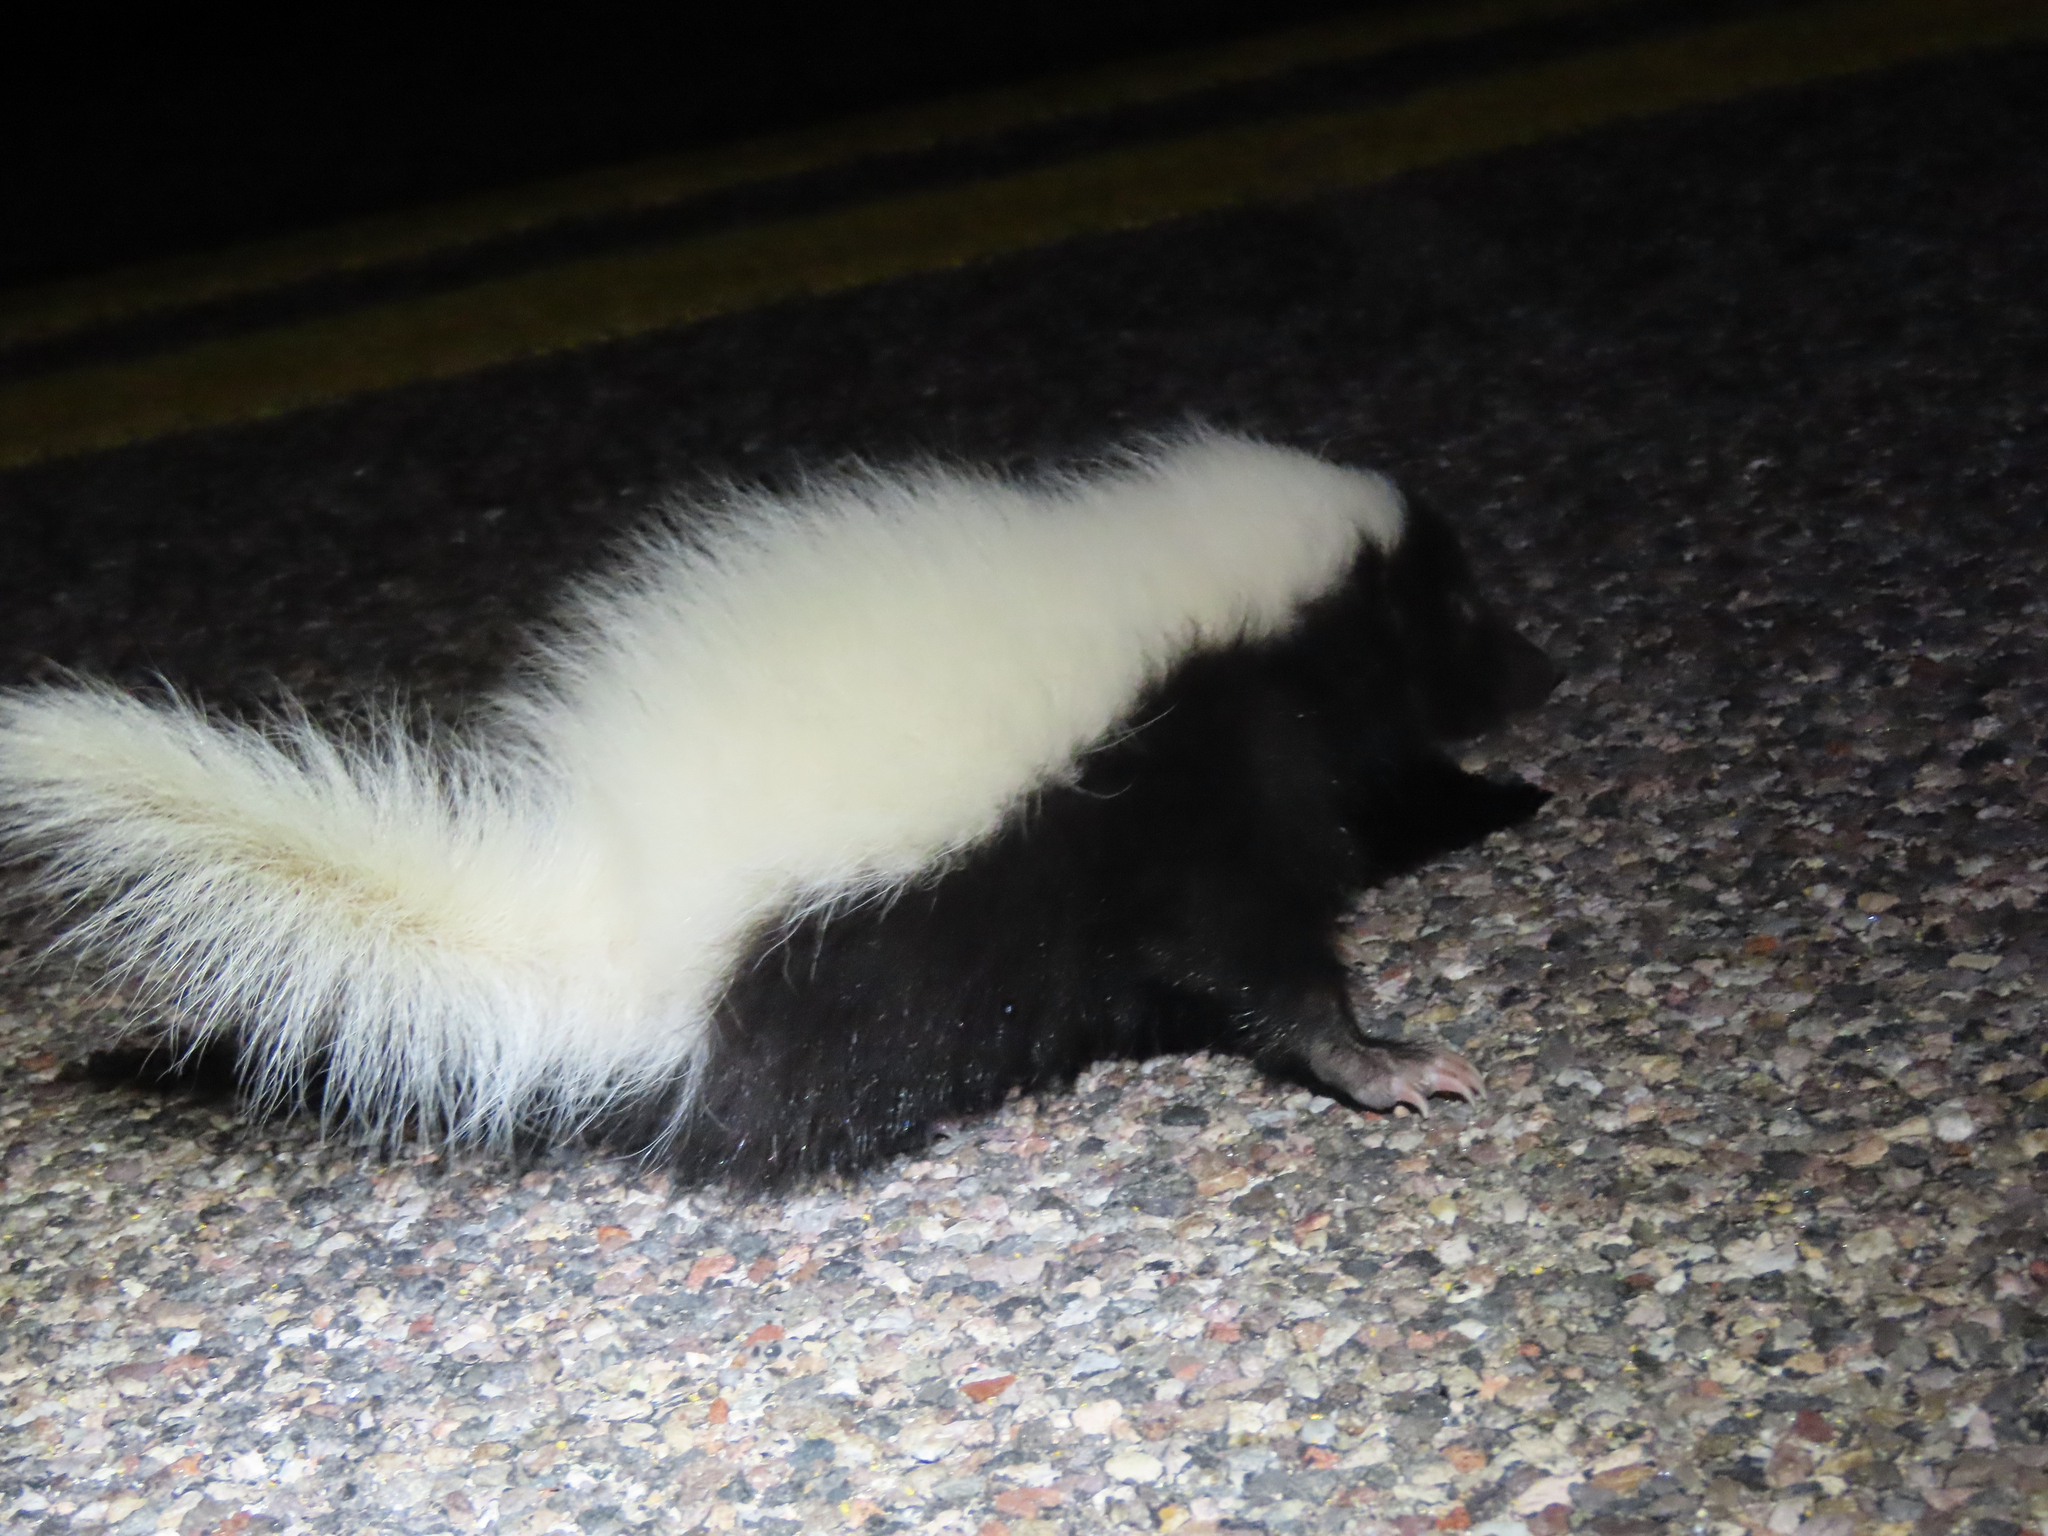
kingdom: Animalia
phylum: Chordata
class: Mammalia
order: Carnivora
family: Mephitidae
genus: Conepatus
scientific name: Conepatus leuconotus
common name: Eastern hog-nosed skunk
